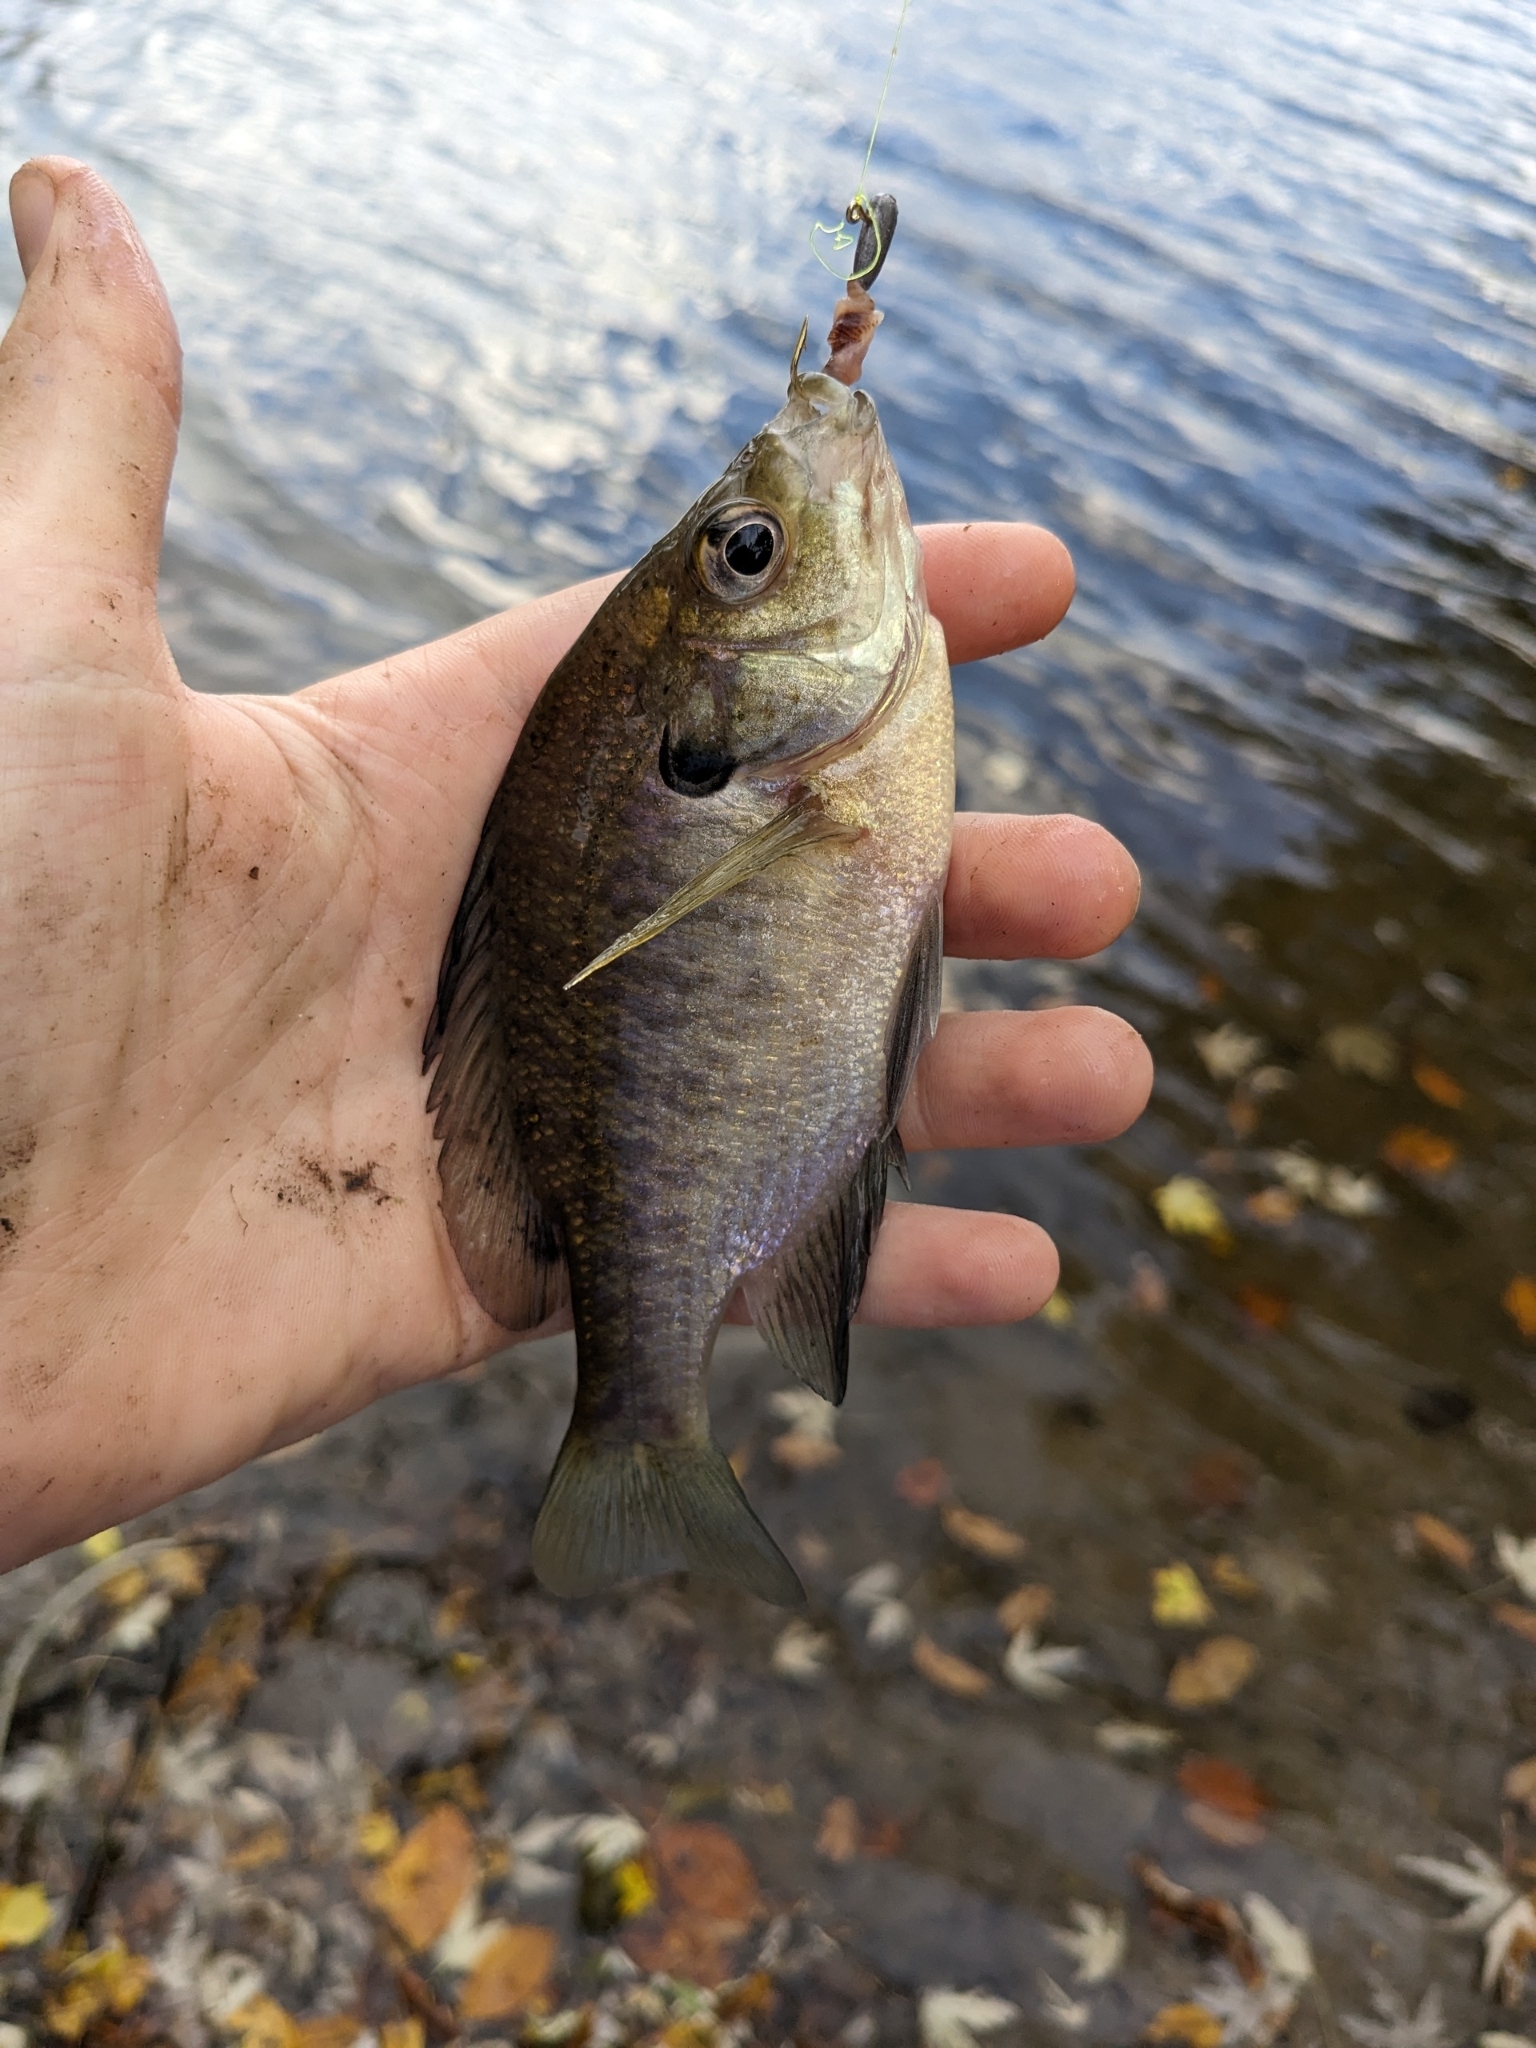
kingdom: Animalia
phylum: Chordata
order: Perciformes
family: Centrarchidae
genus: Lepomis
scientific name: Lepomis macrochirus
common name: Bluegill
